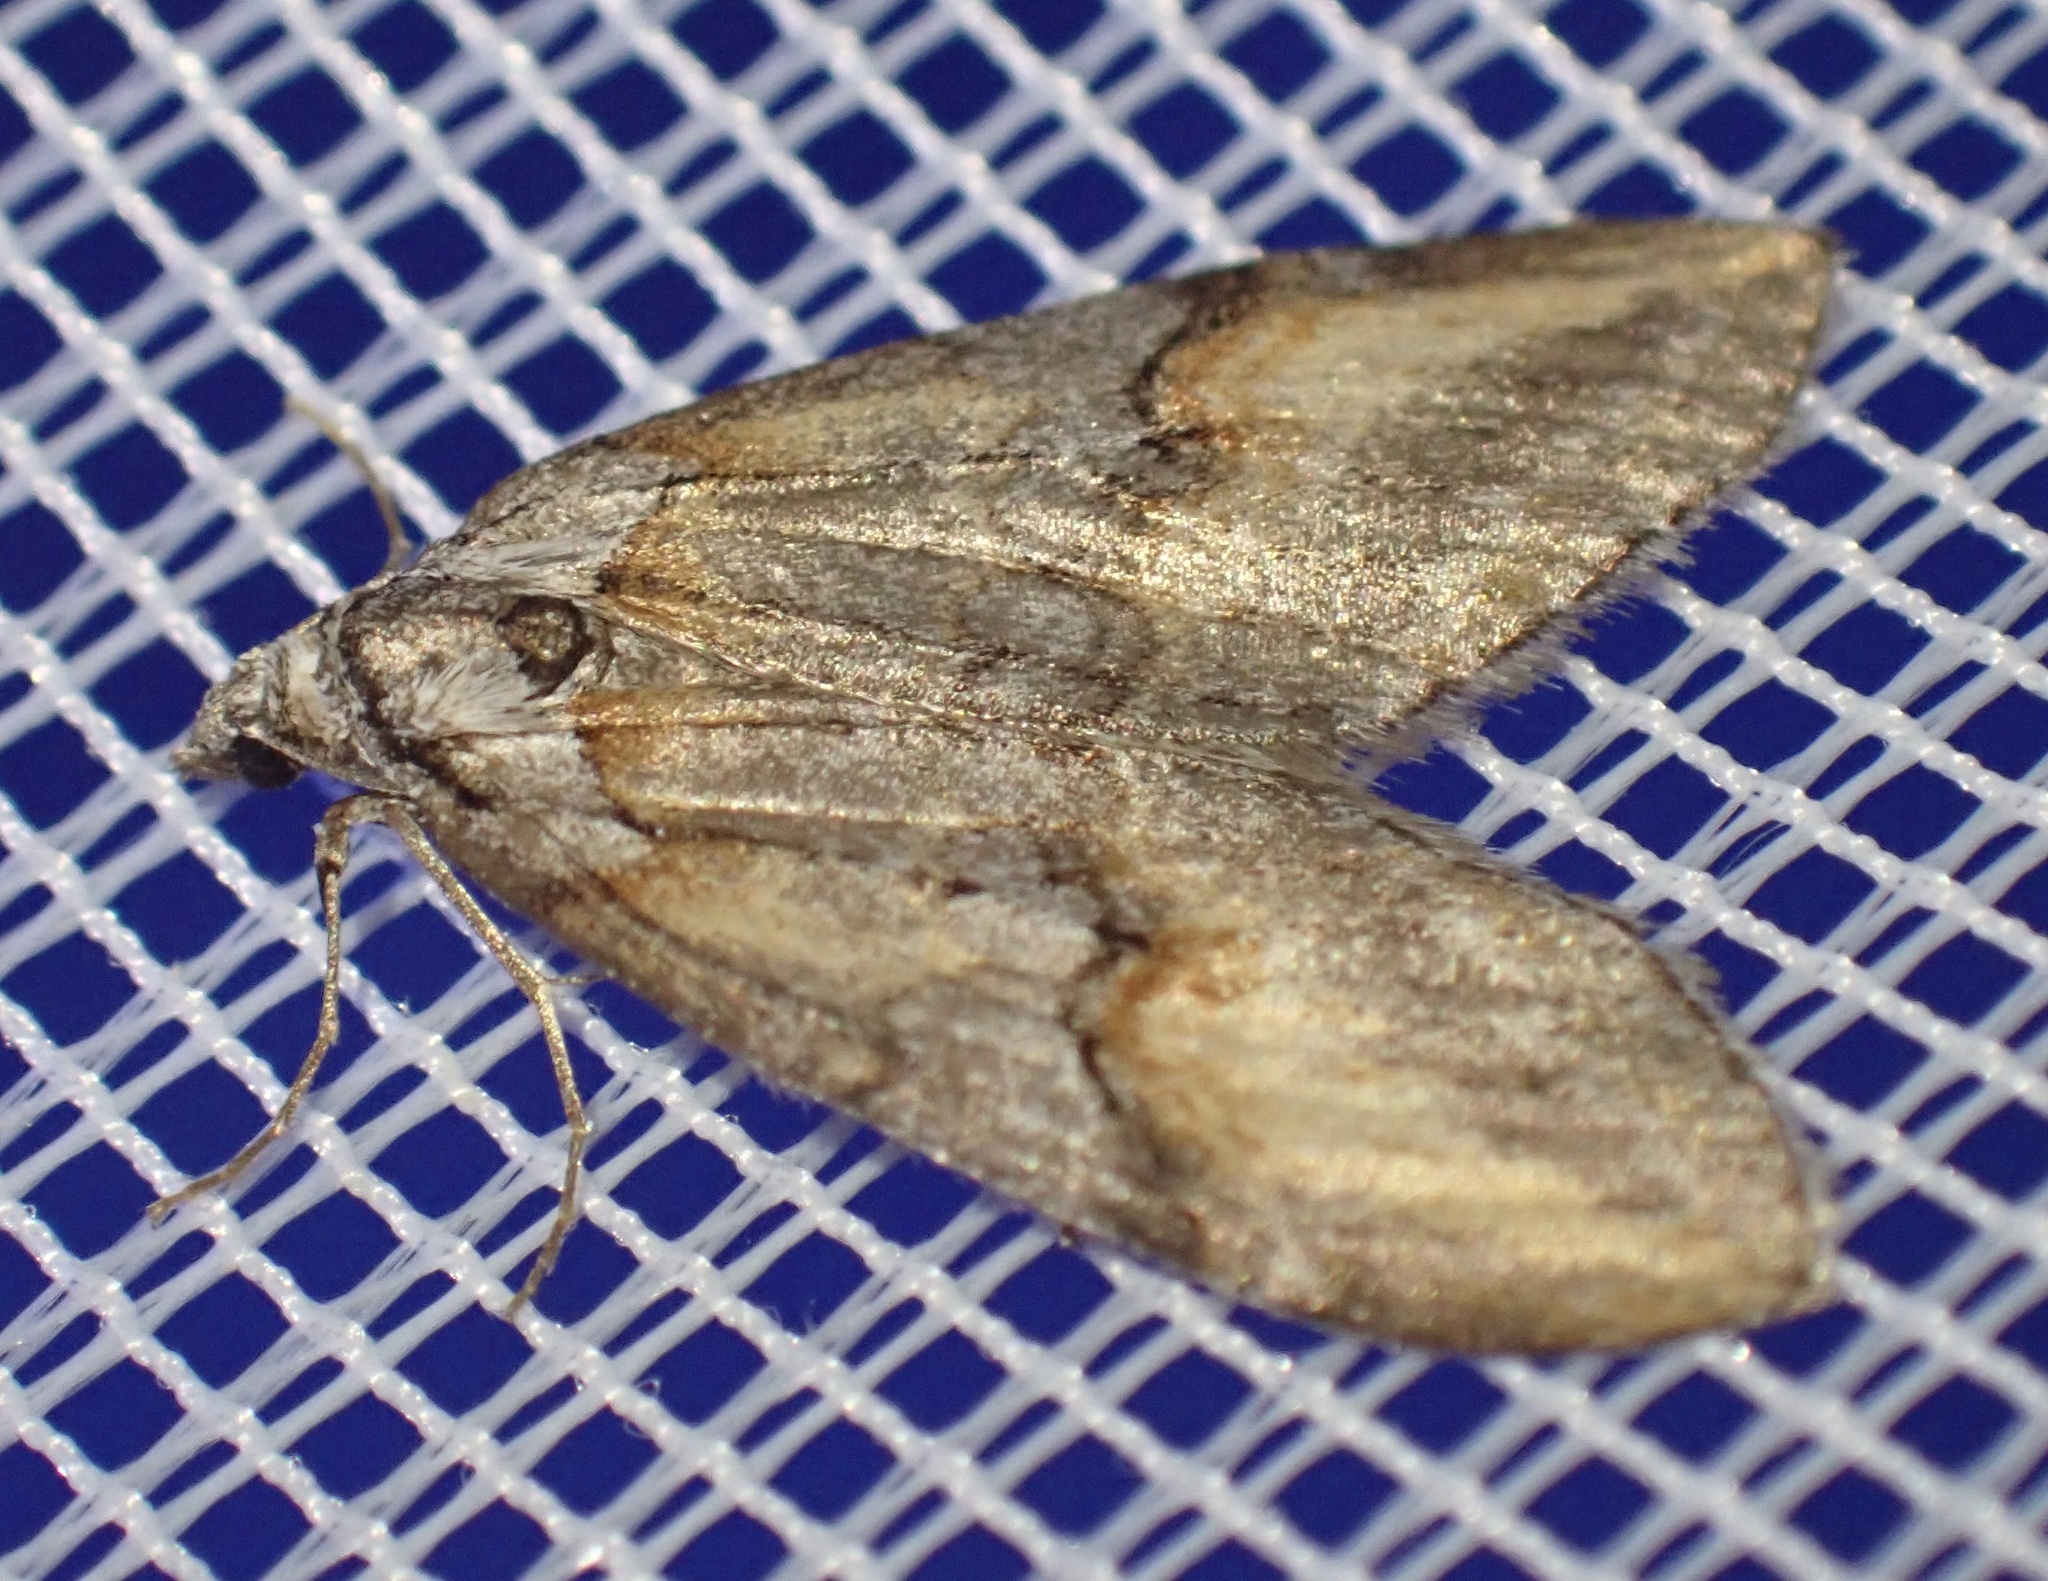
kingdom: Animalia
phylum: Arthropoda
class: Insecta
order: Lepidoptera
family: Geometridae
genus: Chesias
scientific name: Chesias rufata
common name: Broom-tip
